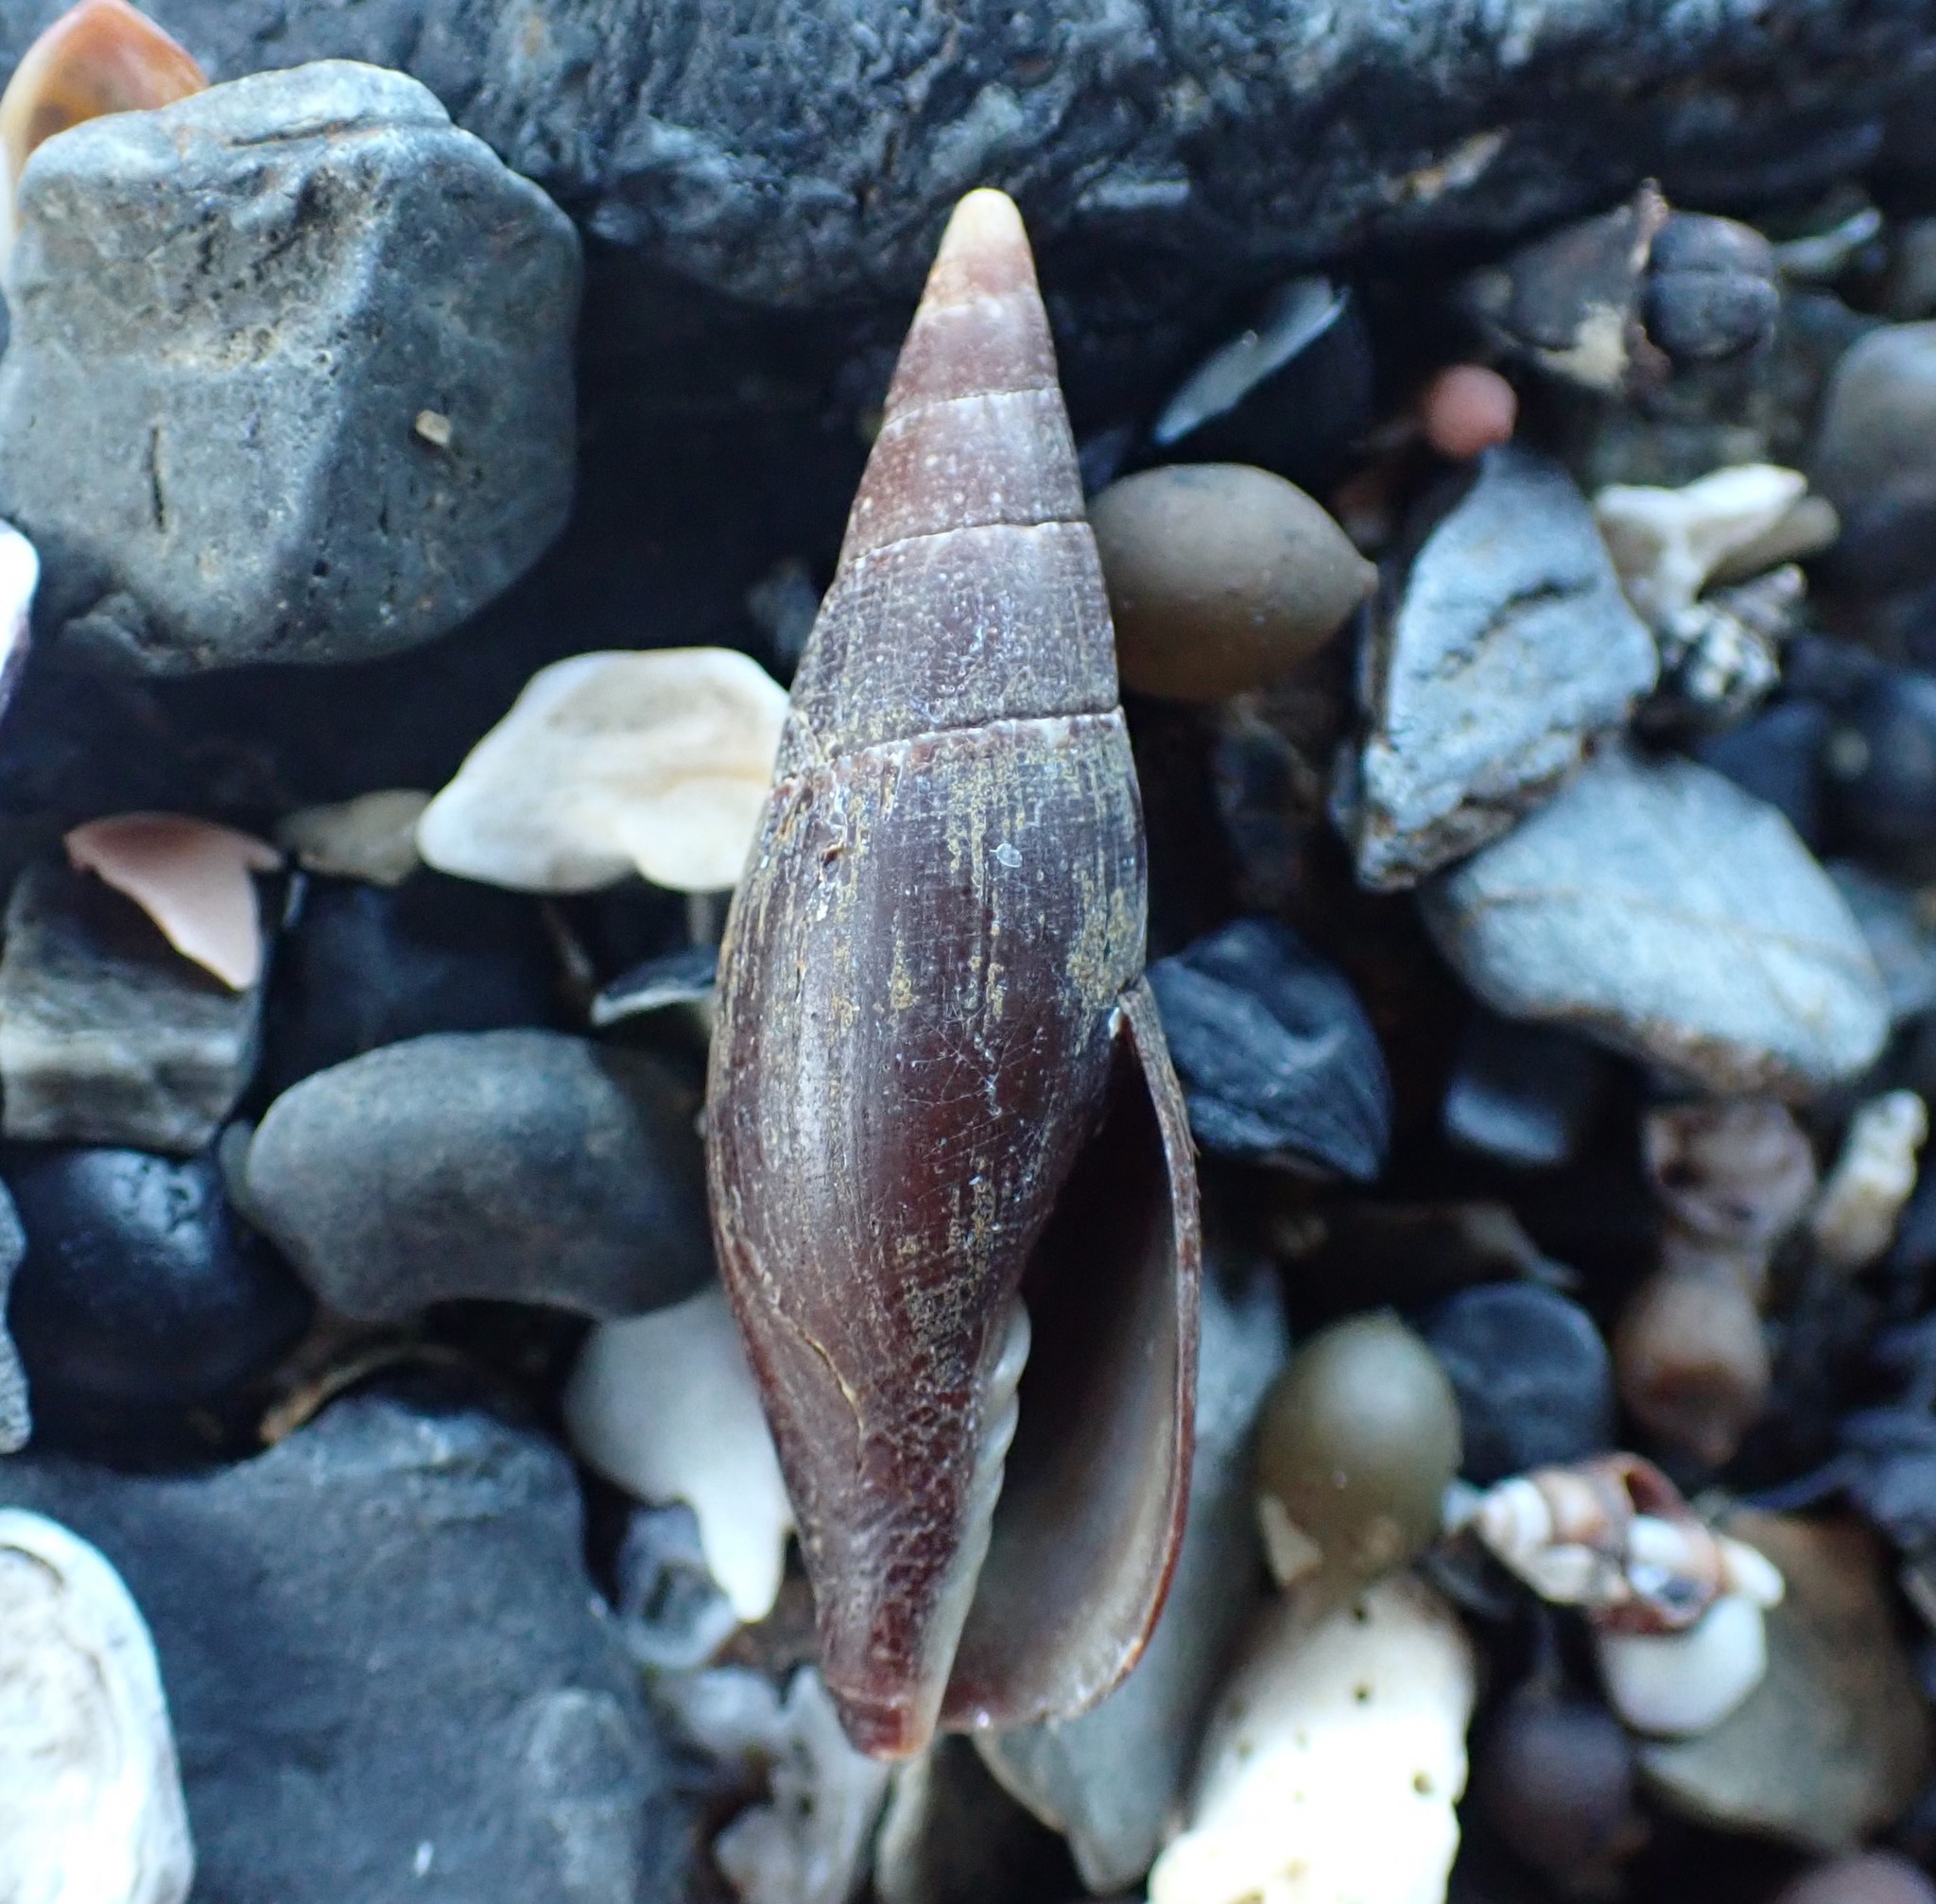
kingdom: Animalia
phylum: Mollusca
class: Gastropoda
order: Neogastropoda
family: Mitridae
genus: Isara
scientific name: Isara carbonaria
